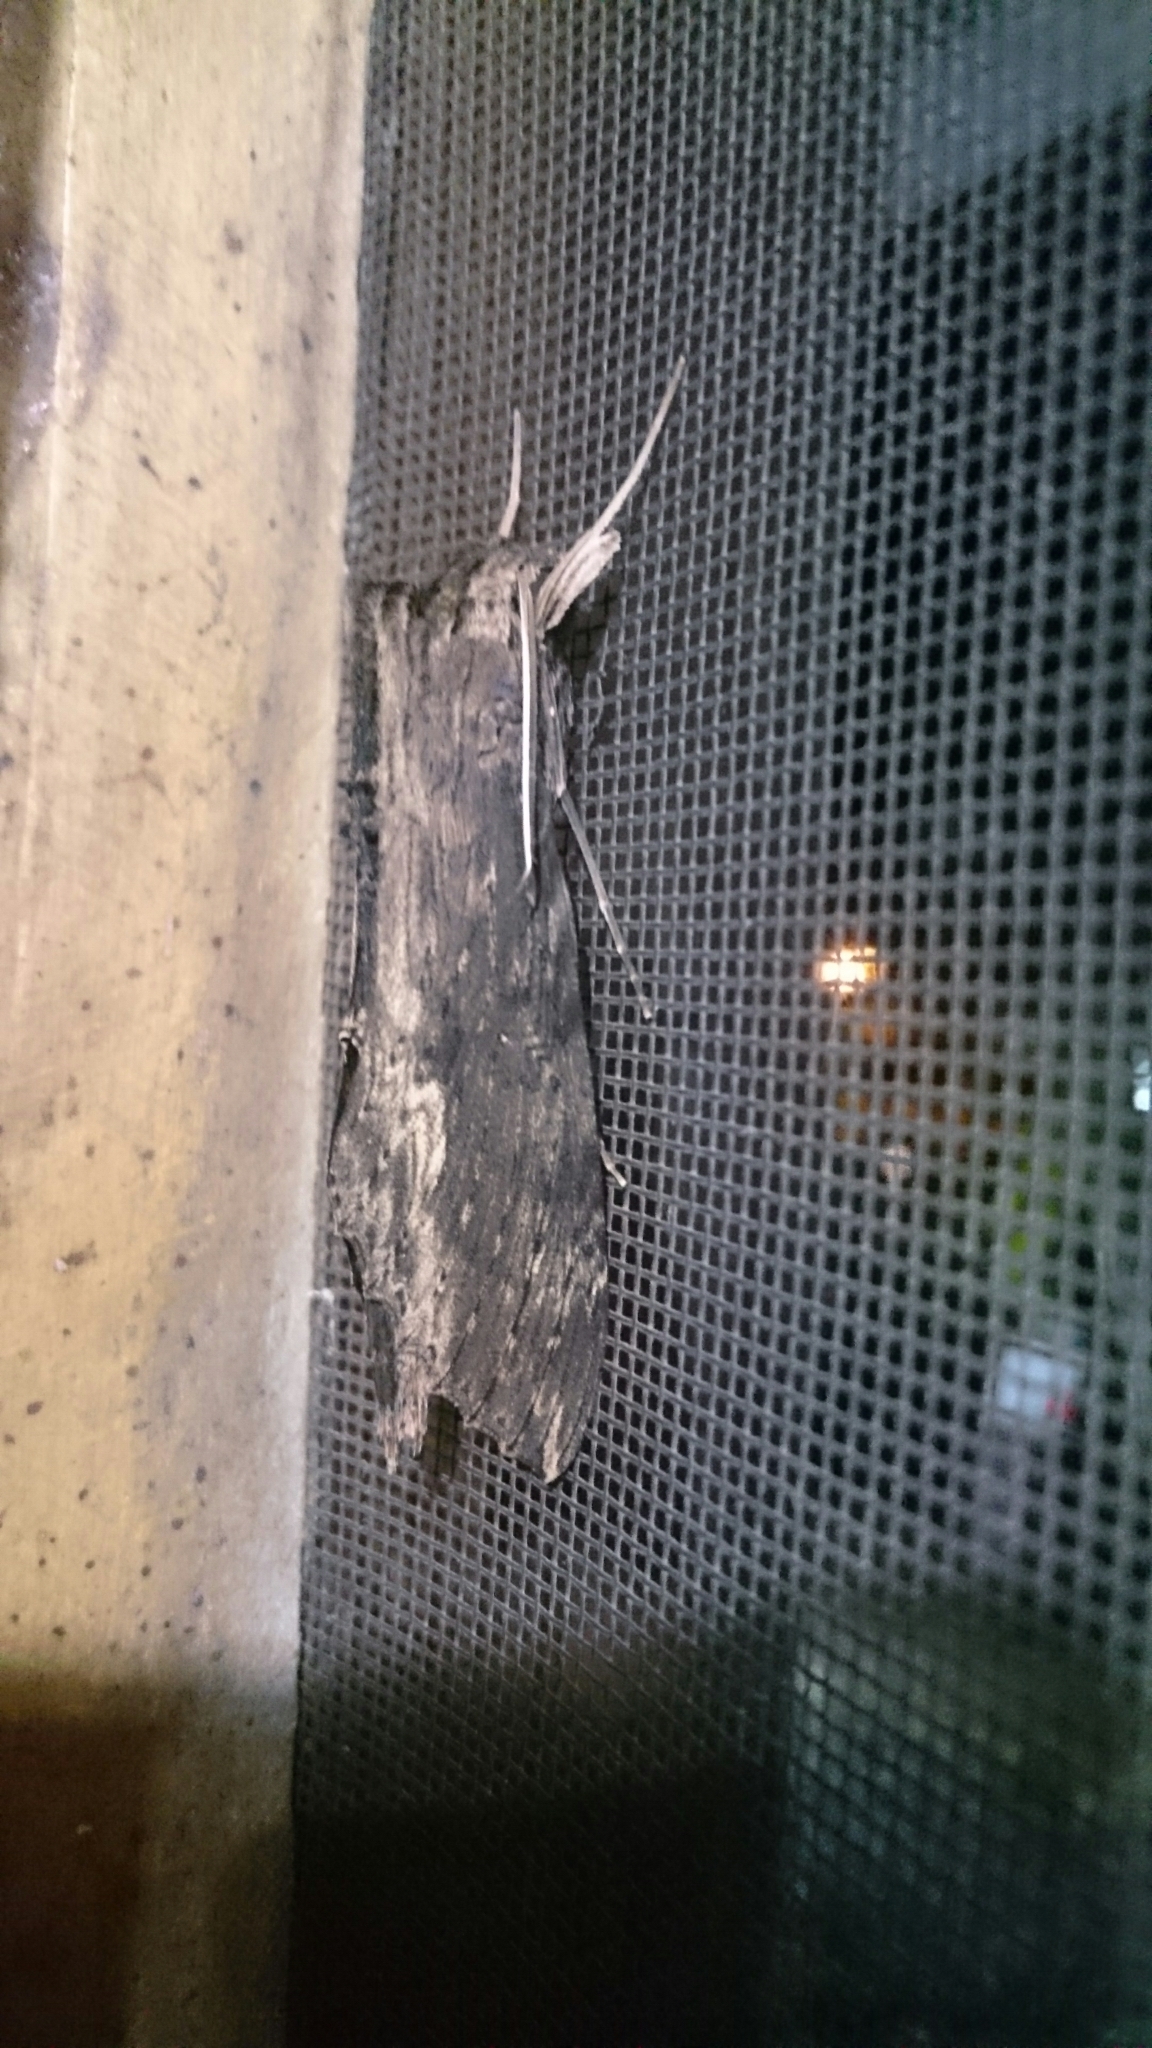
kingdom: Animalia
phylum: Arthropoda
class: Insecta
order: Lepidoptera
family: Sphingidae
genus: Erinnyis
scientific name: Erinnyis alope
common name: Alope sphinx
